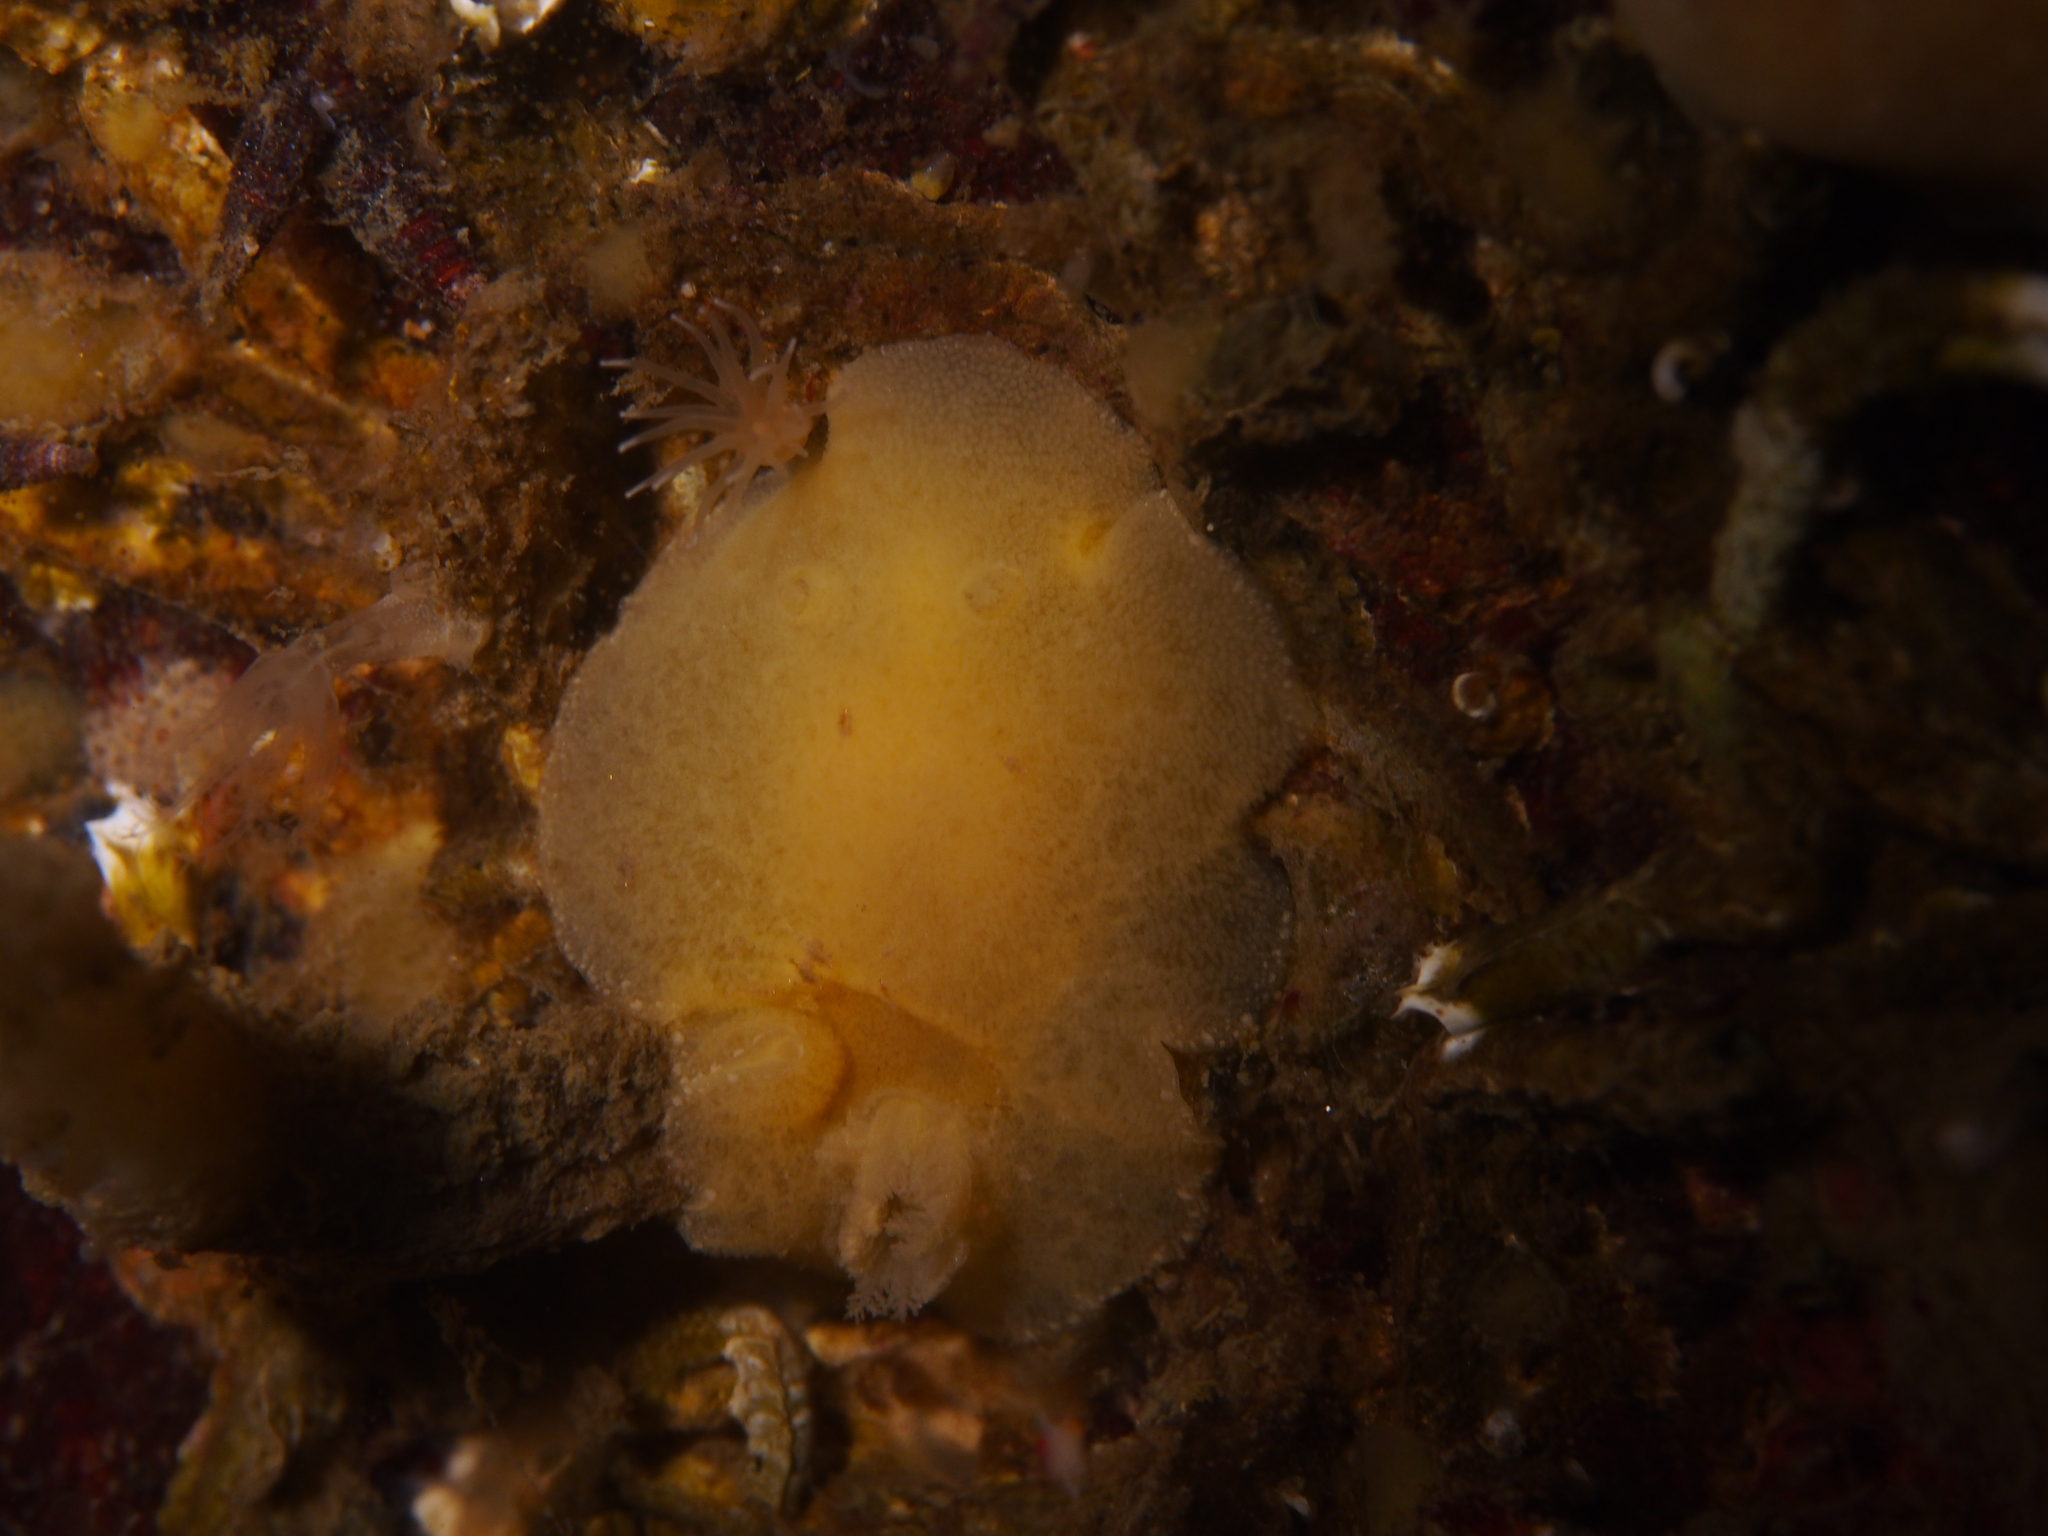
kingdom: Animalia
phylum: Mollusca
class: Gastropoda
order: Nudibranchia
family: Discodorididae
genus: Jorunna
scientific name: Jorunna tomentosa
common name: Grey sea slug
